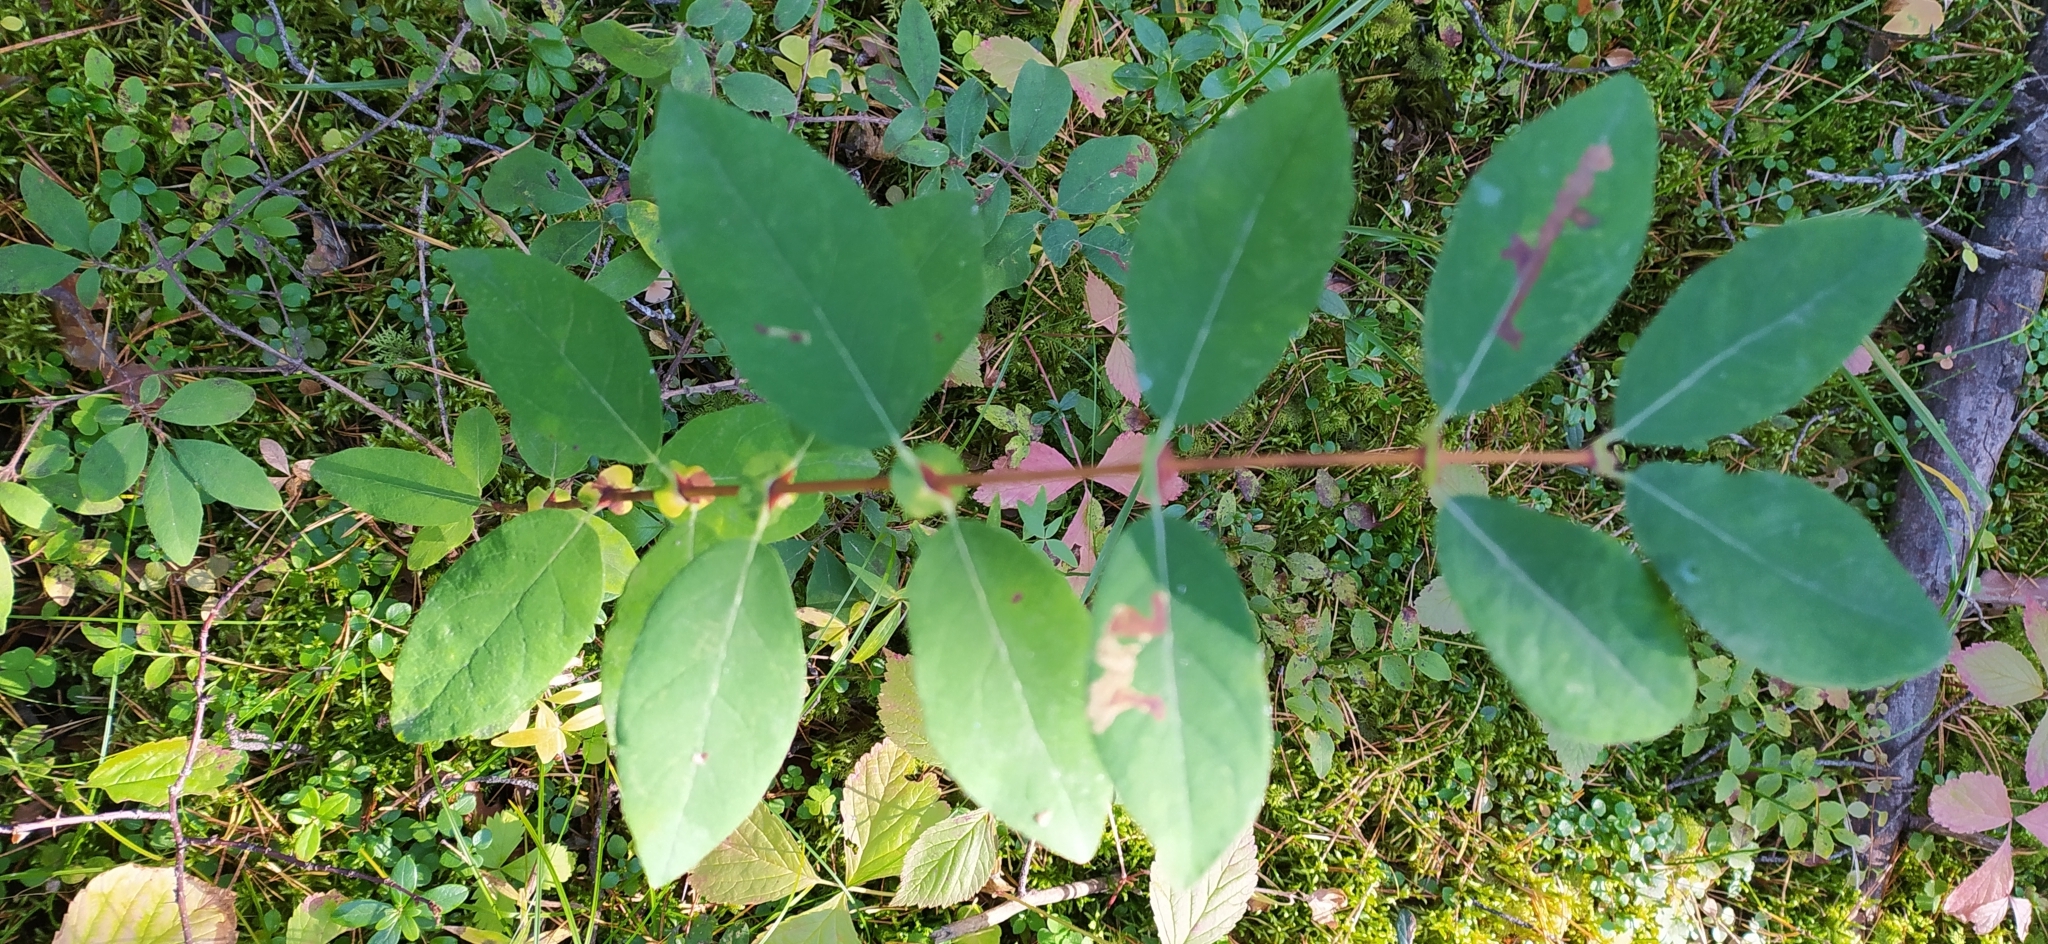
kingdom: Plantae
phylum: Tracheophyta
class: Magnoliopsida
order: Dipsacales
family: Caprifoliaceae
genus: Lonicera
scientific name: Lonicera caerulea
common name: Blue honeysuckle
